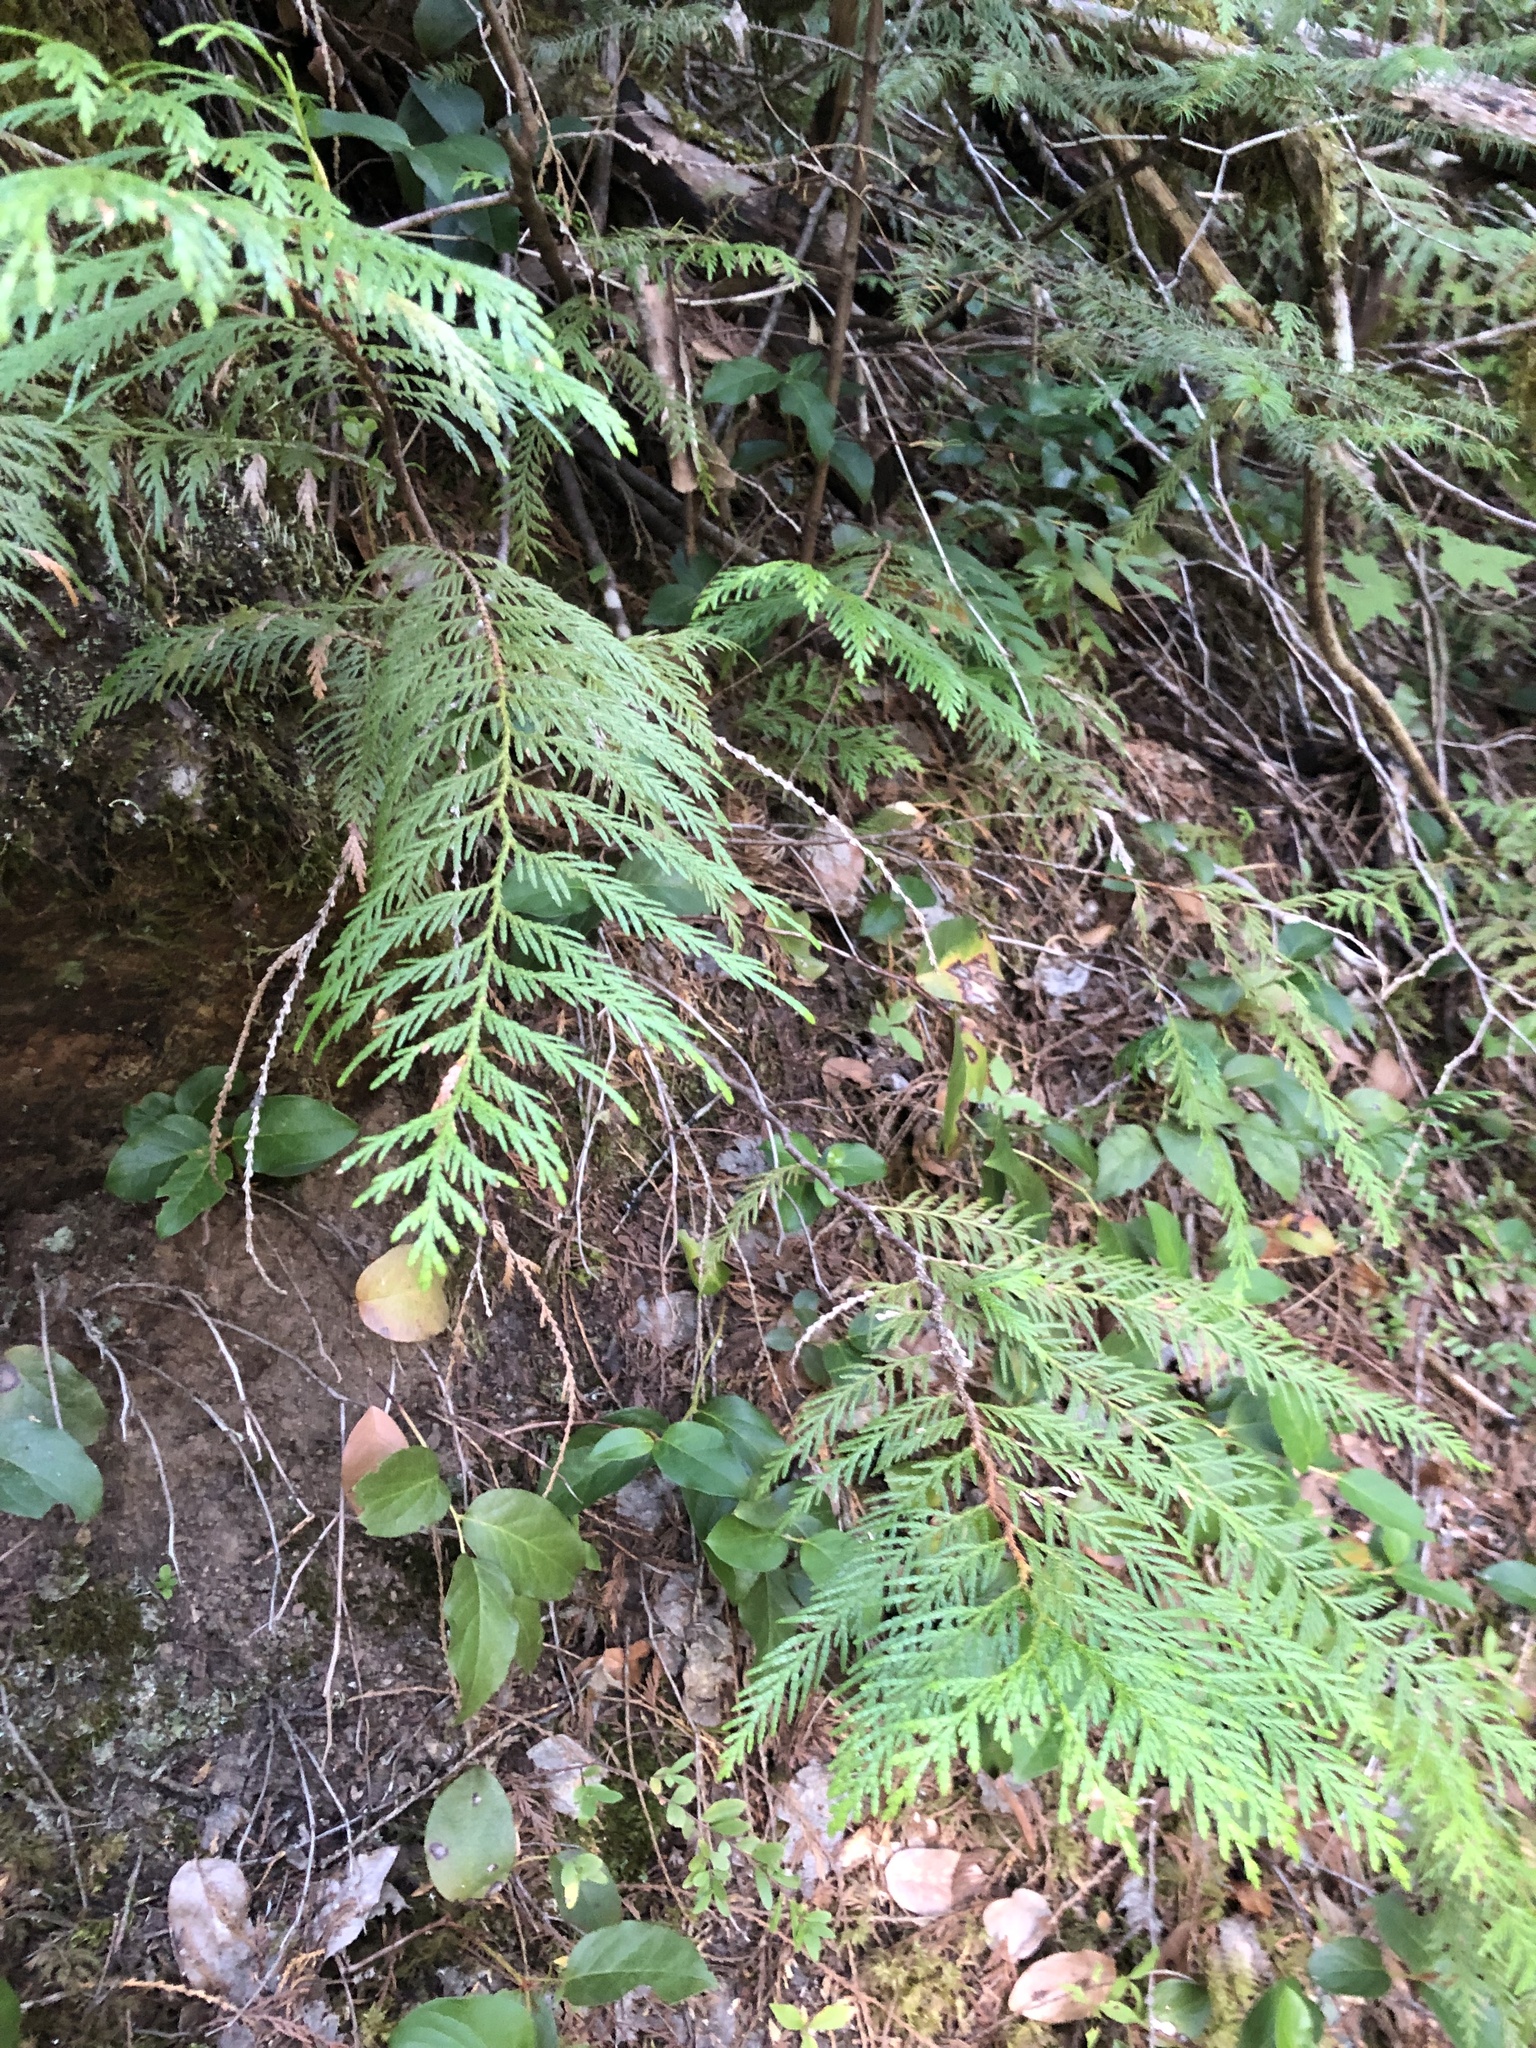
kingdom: Plantae
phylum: Tracheophyta
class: Pinopsida
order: Pinales
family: Cupressaceae
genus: Thuja
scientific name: Thuja plicata
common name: Western red-cedar
